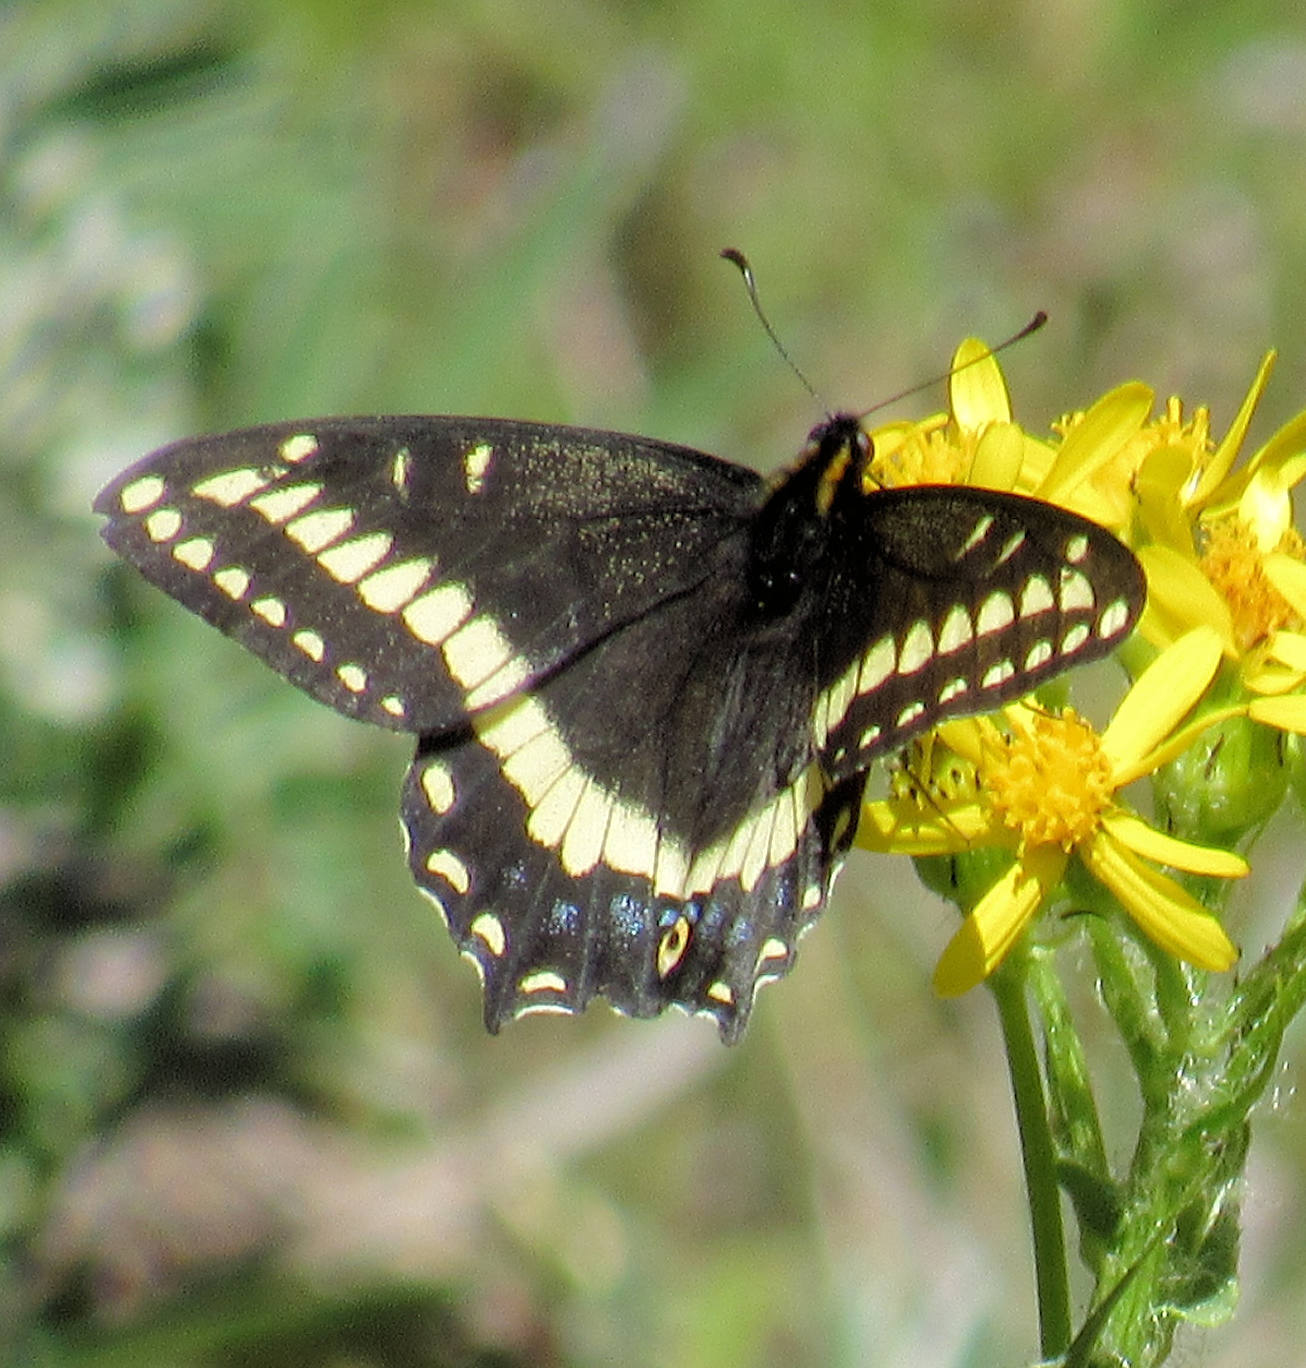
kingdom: Animalia
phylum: Arthropoda
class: Insecta
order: Lepidoptera
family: Papilionidae
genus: Papilio
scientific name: Papilio indra
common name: Cliff swallowtail
